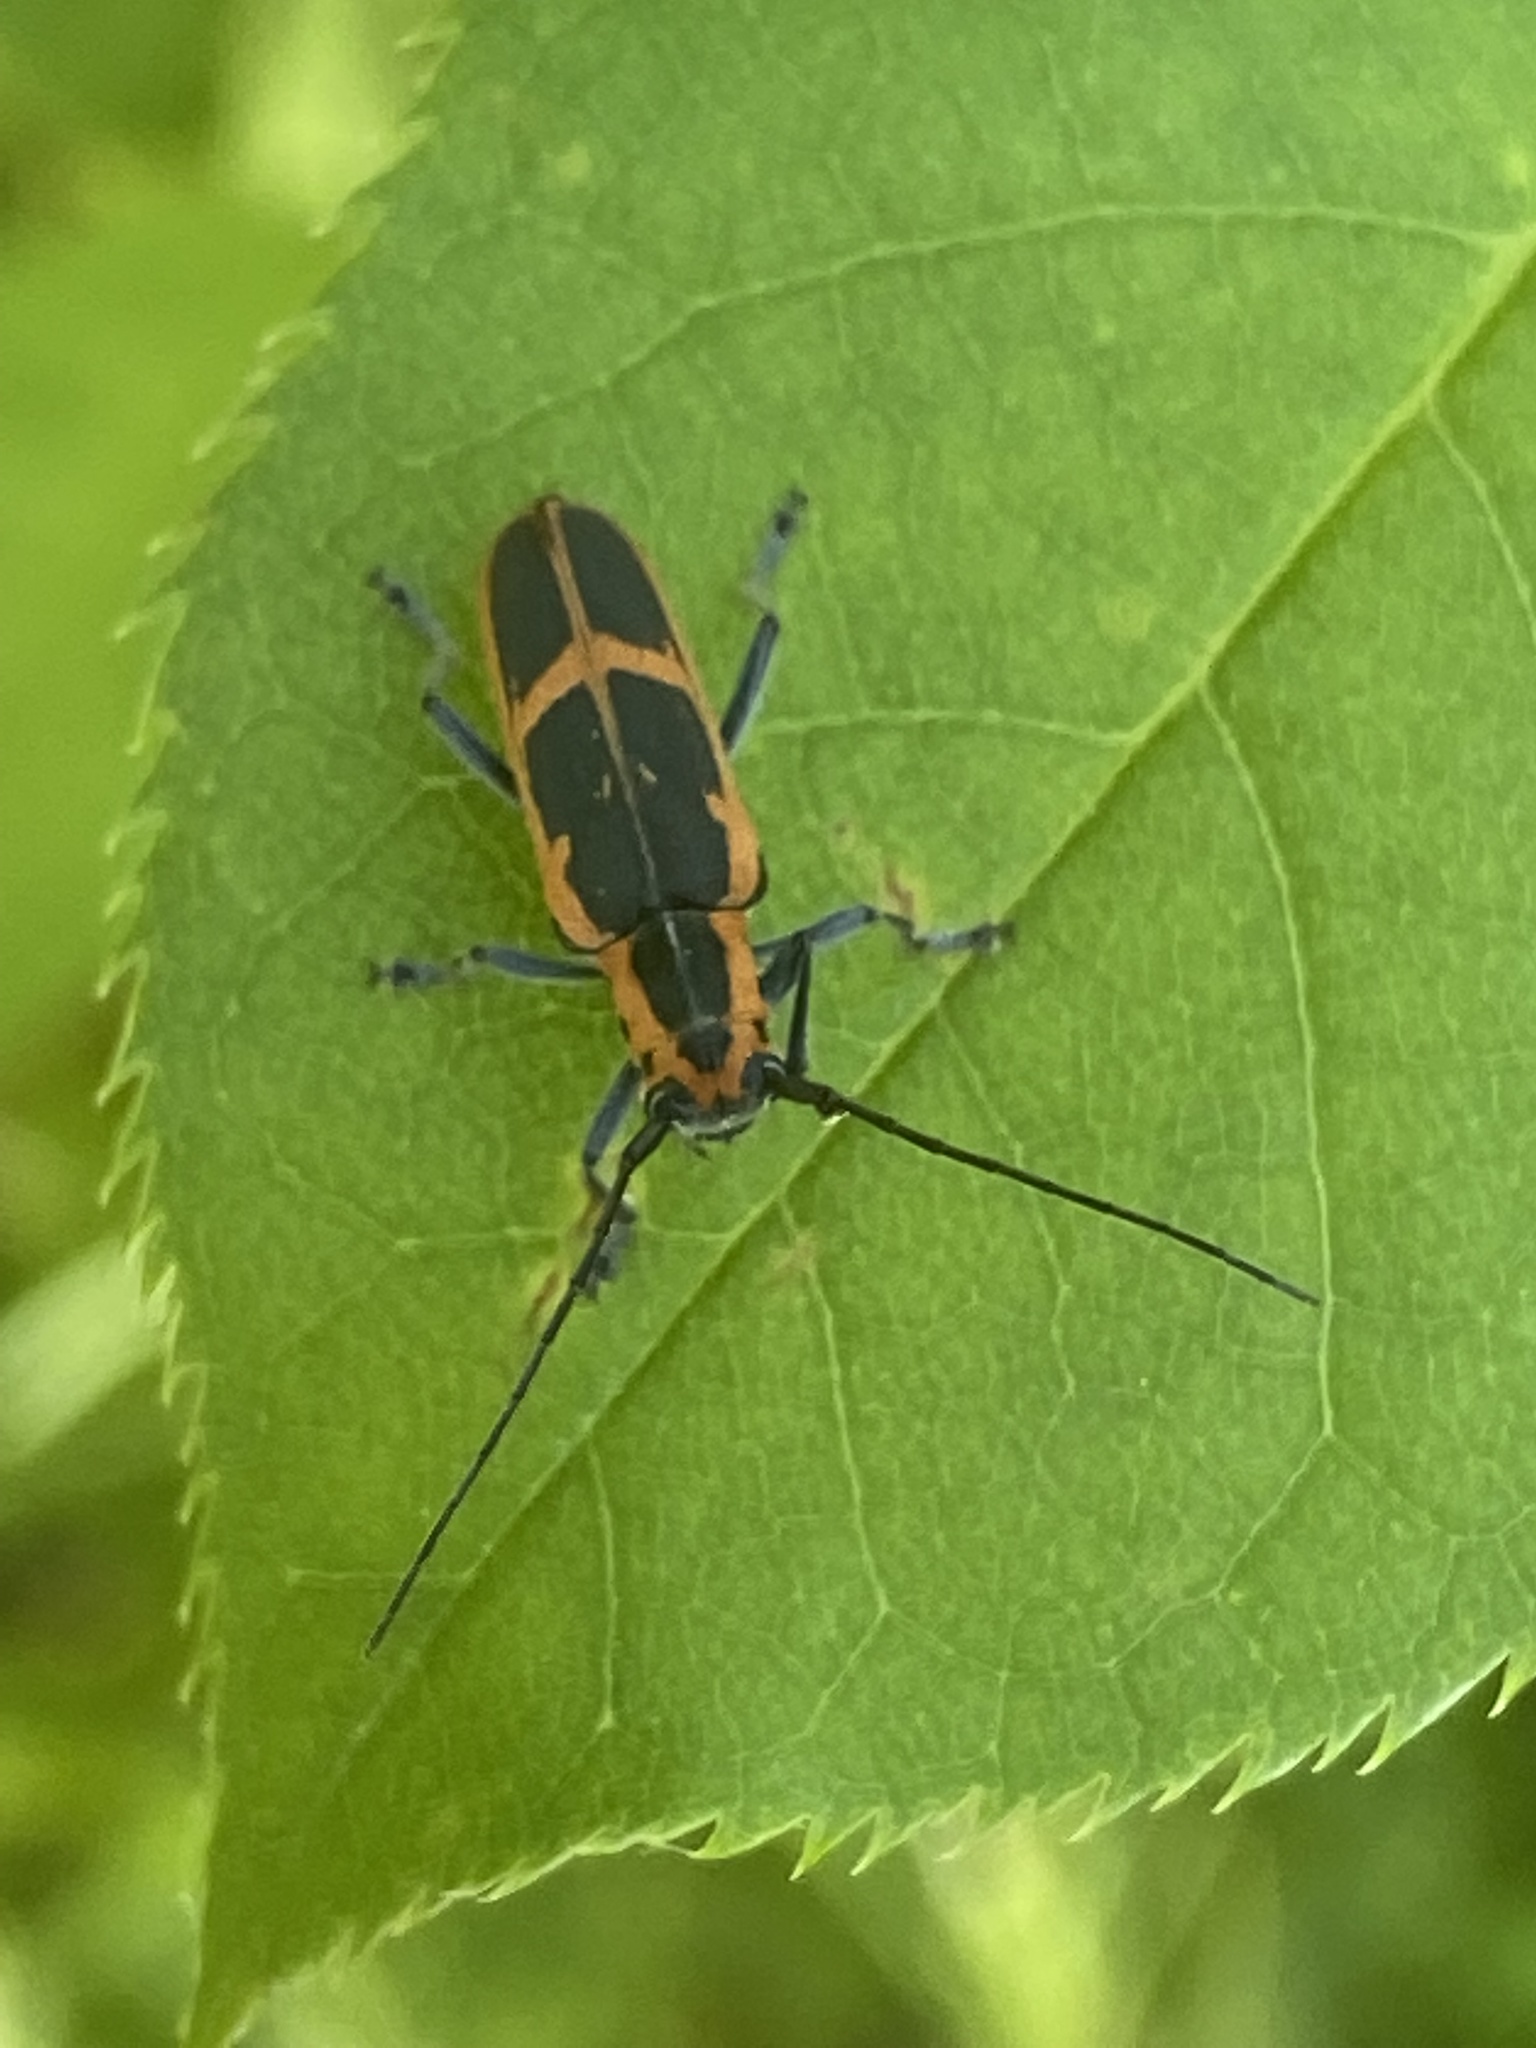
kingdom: Animalia
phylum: Arthropoda
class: Insecta
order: Coleoptera
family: Cerambycidae
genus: Saperda
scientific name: Saperda lateralis
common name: Red-edged saperda
